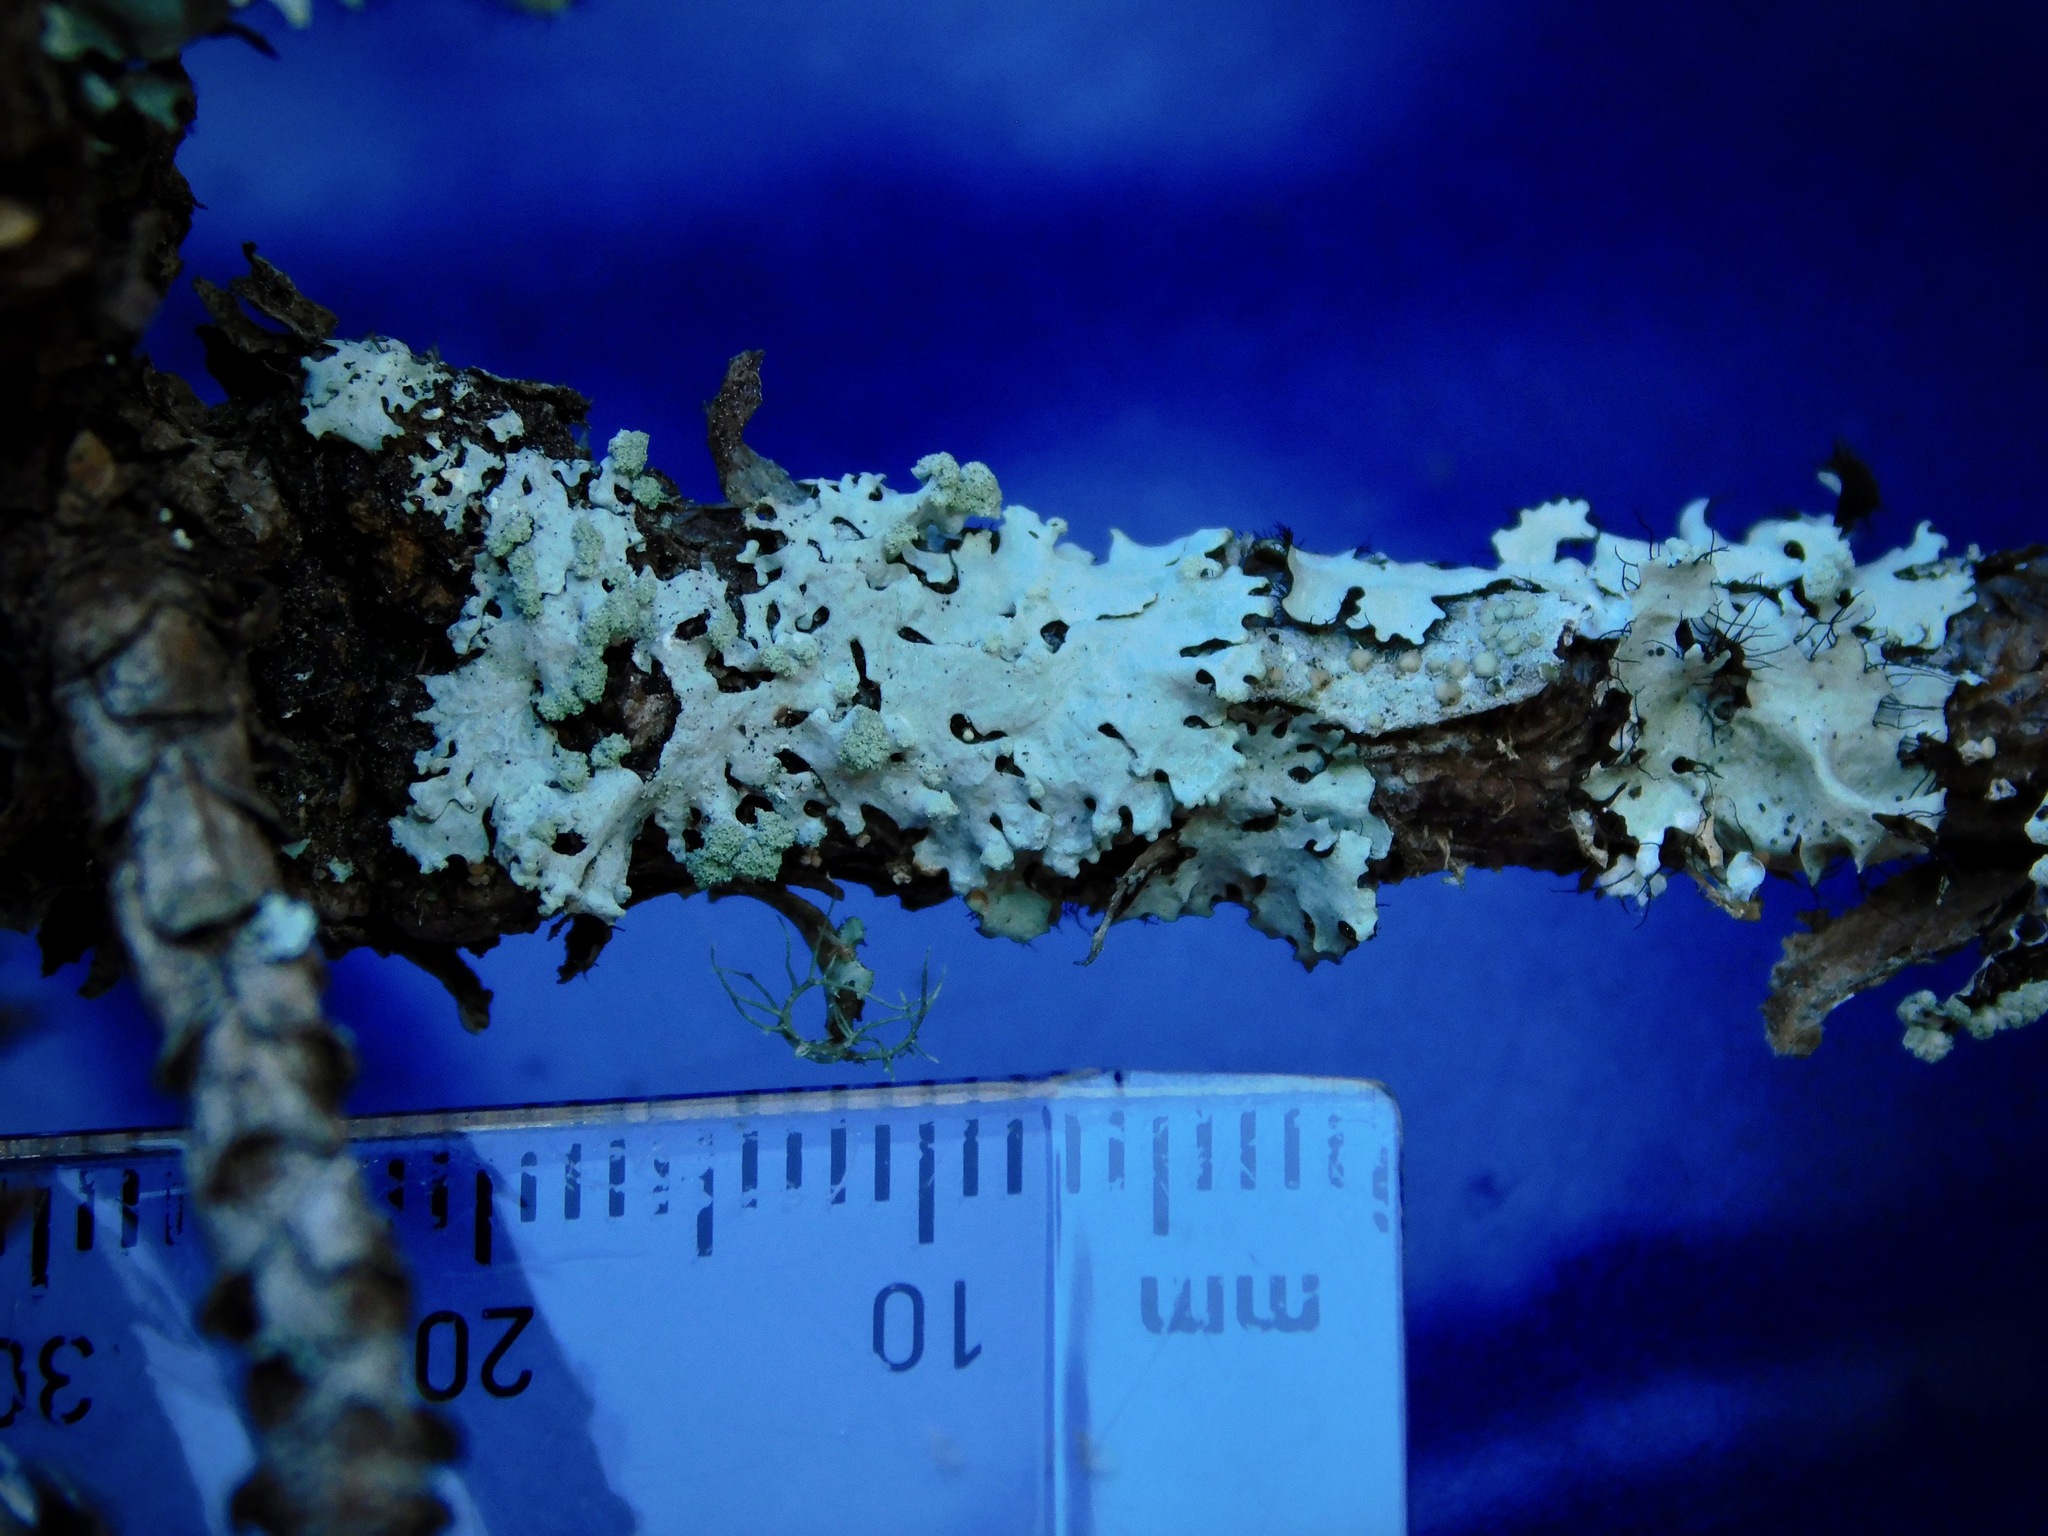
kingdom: Fungi
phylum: Ascomycota
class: Lecanoromycetes
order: Lecanorales
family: Parmeliaceae
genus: Myelochroa
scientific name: Myelochroa metarevoluta
